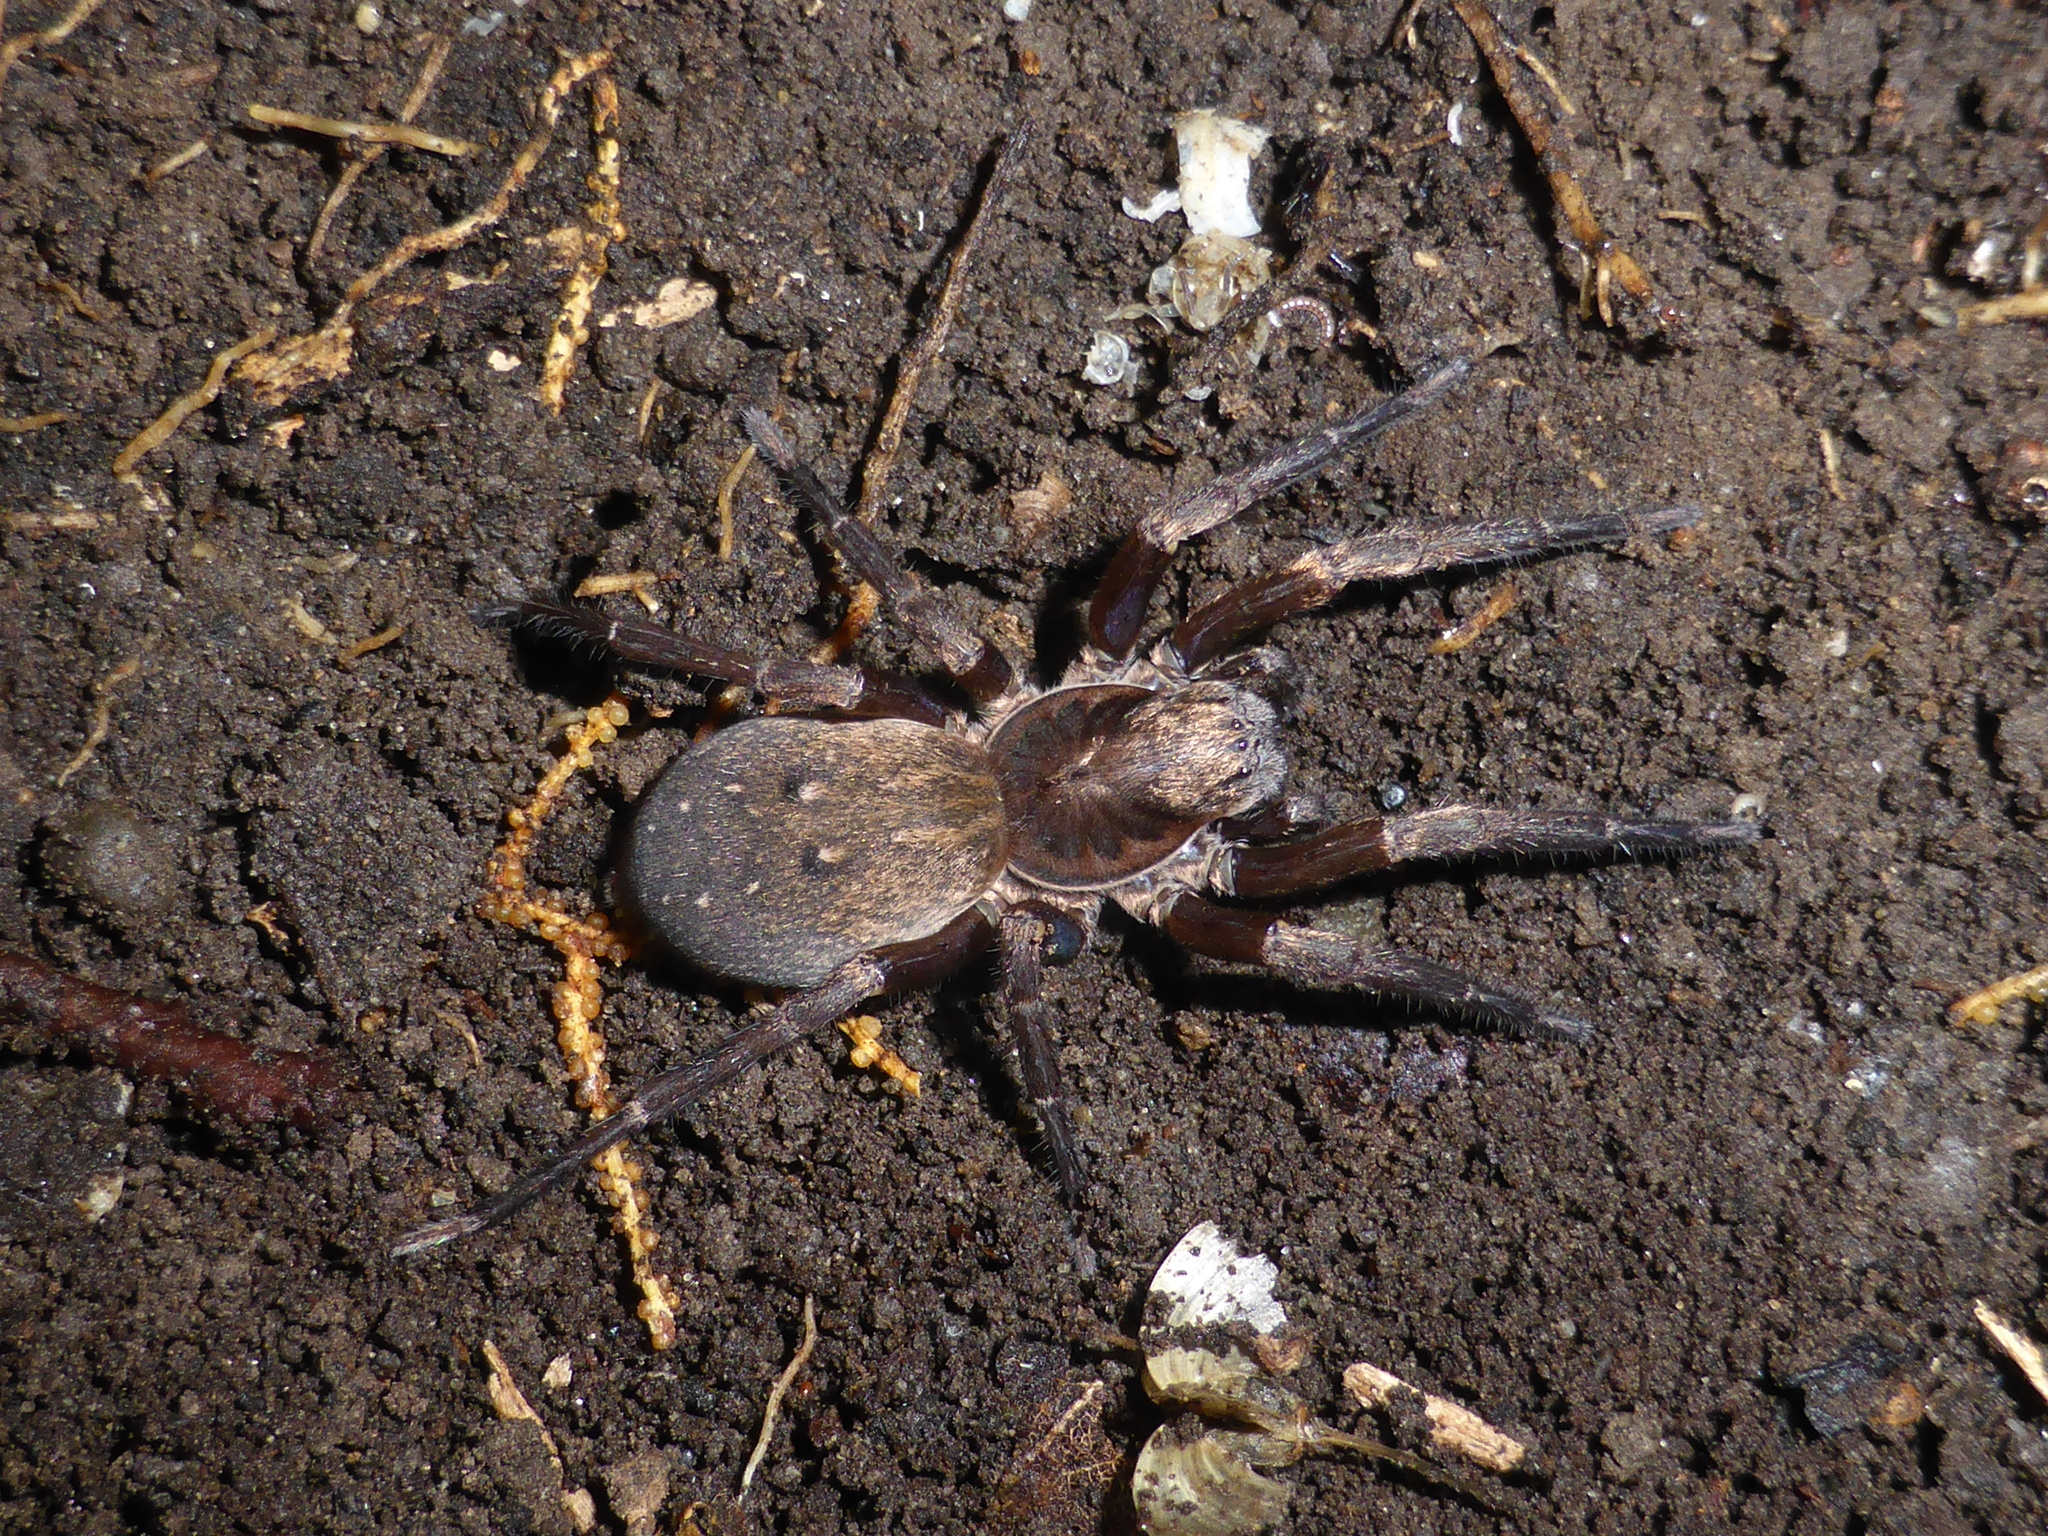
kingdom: Animalia
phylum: Arthropoda
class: Arachnida
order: Araneae
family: Zoropsidae
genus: Uliodon
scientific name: Uliodon albopunctatus
